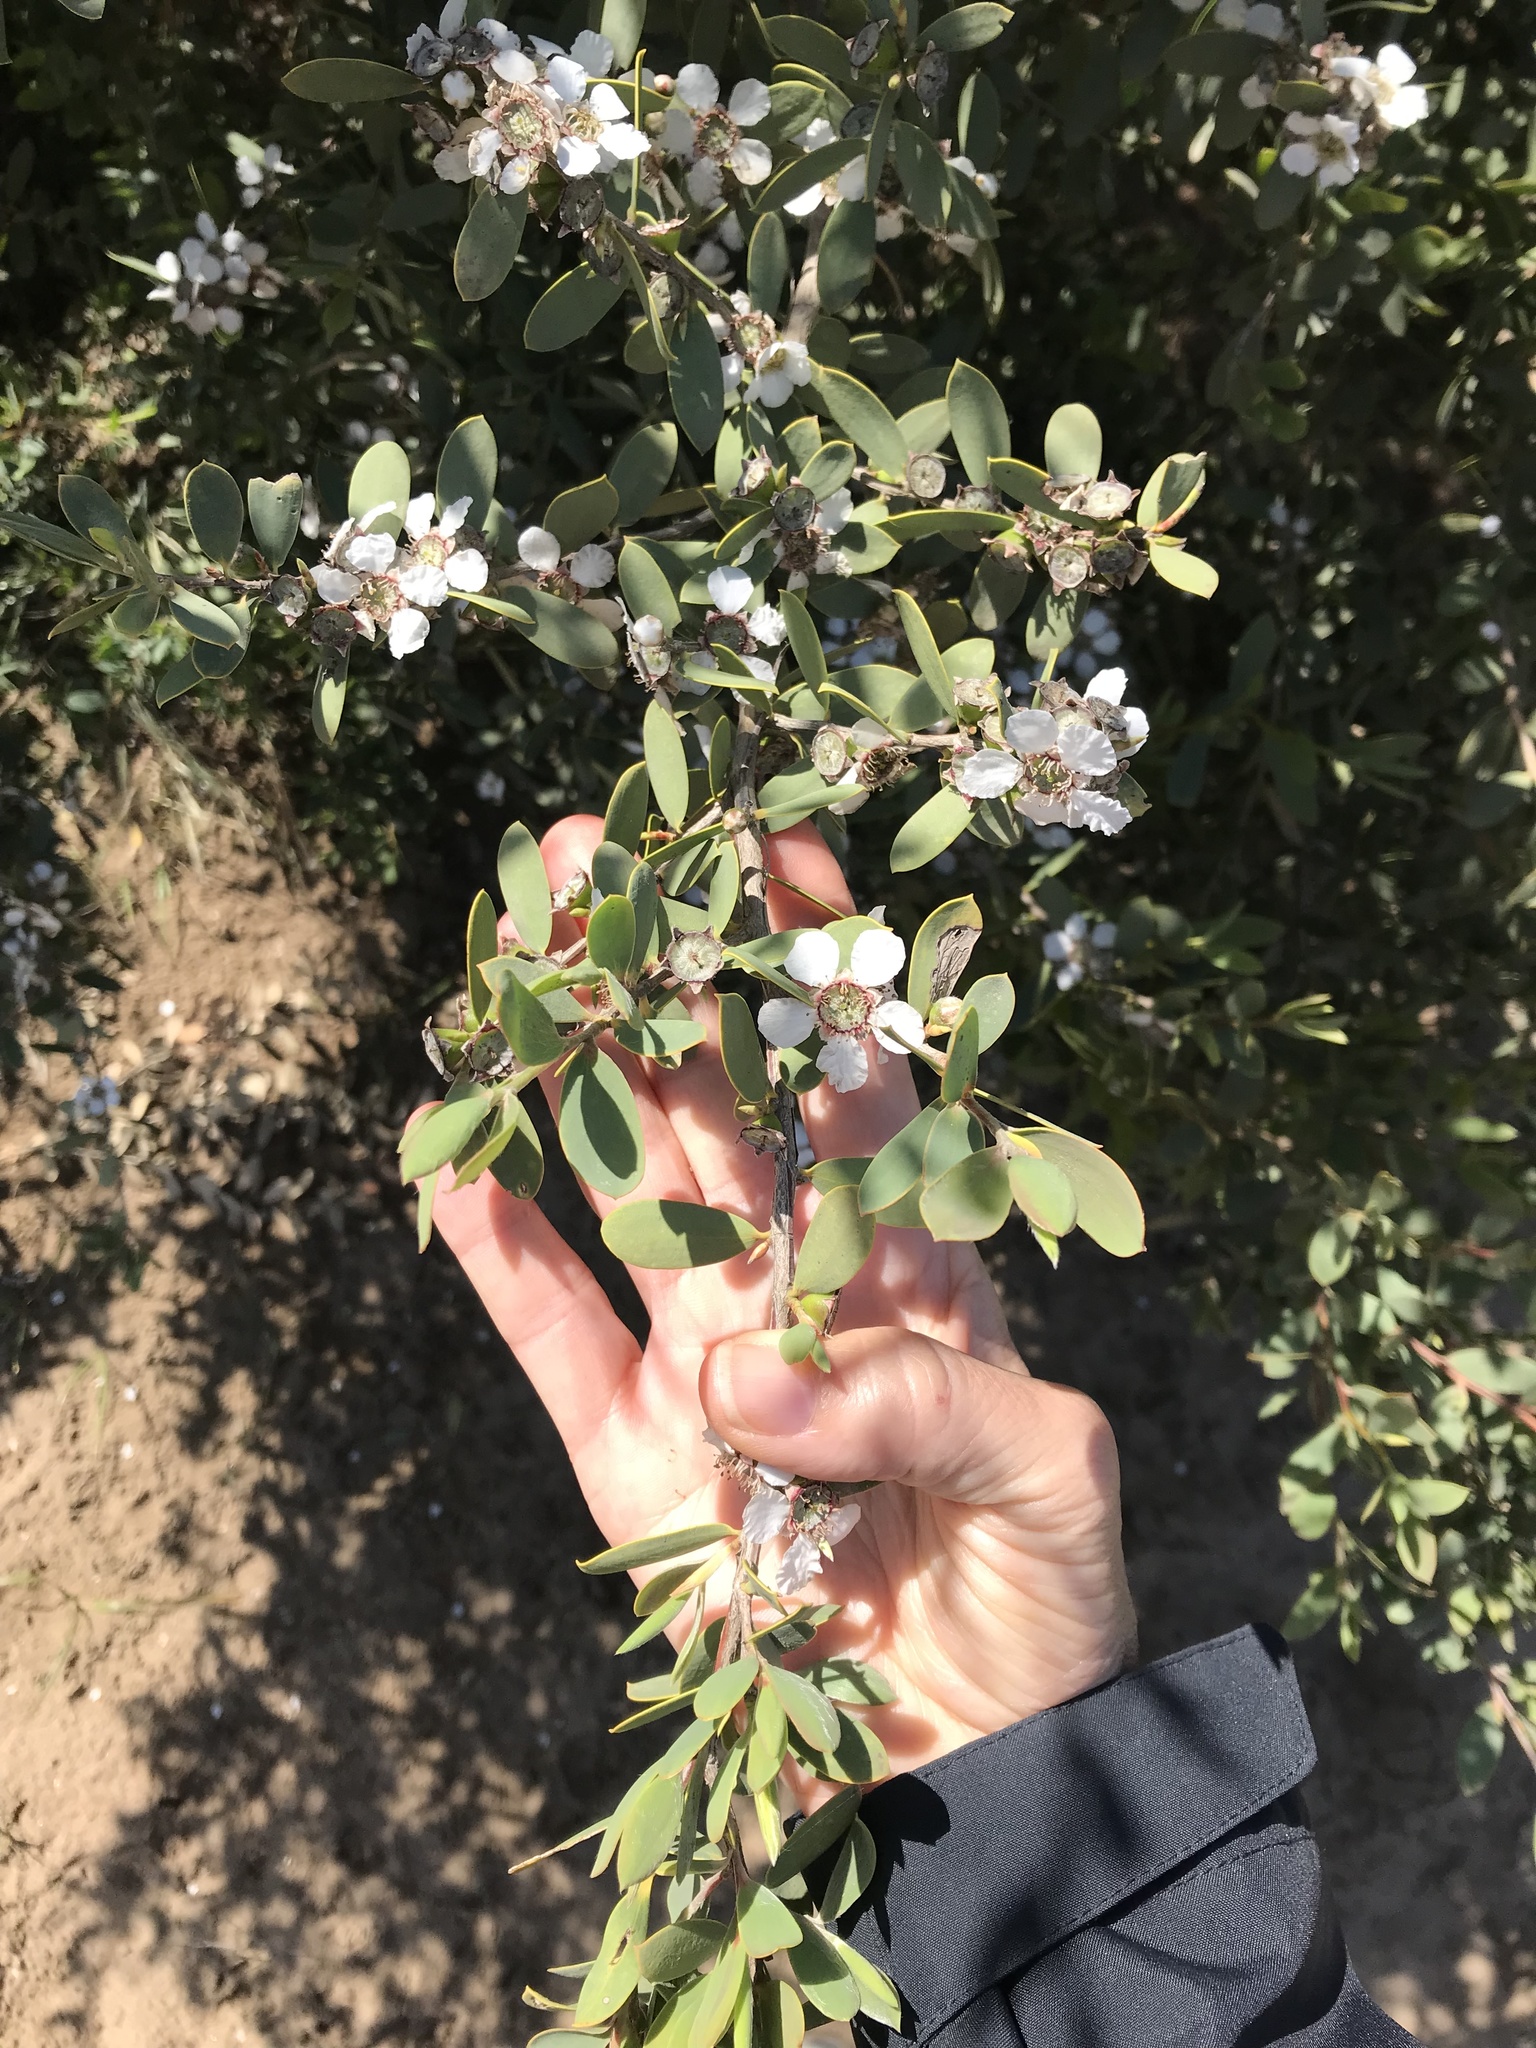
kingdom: Plantae
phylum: Tracheophyta
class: Magnoliopsida
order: Myrtales
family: Myrtaceae
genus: Leptospermum
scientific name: Leptospermum laevigatum
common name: Australian teatree
